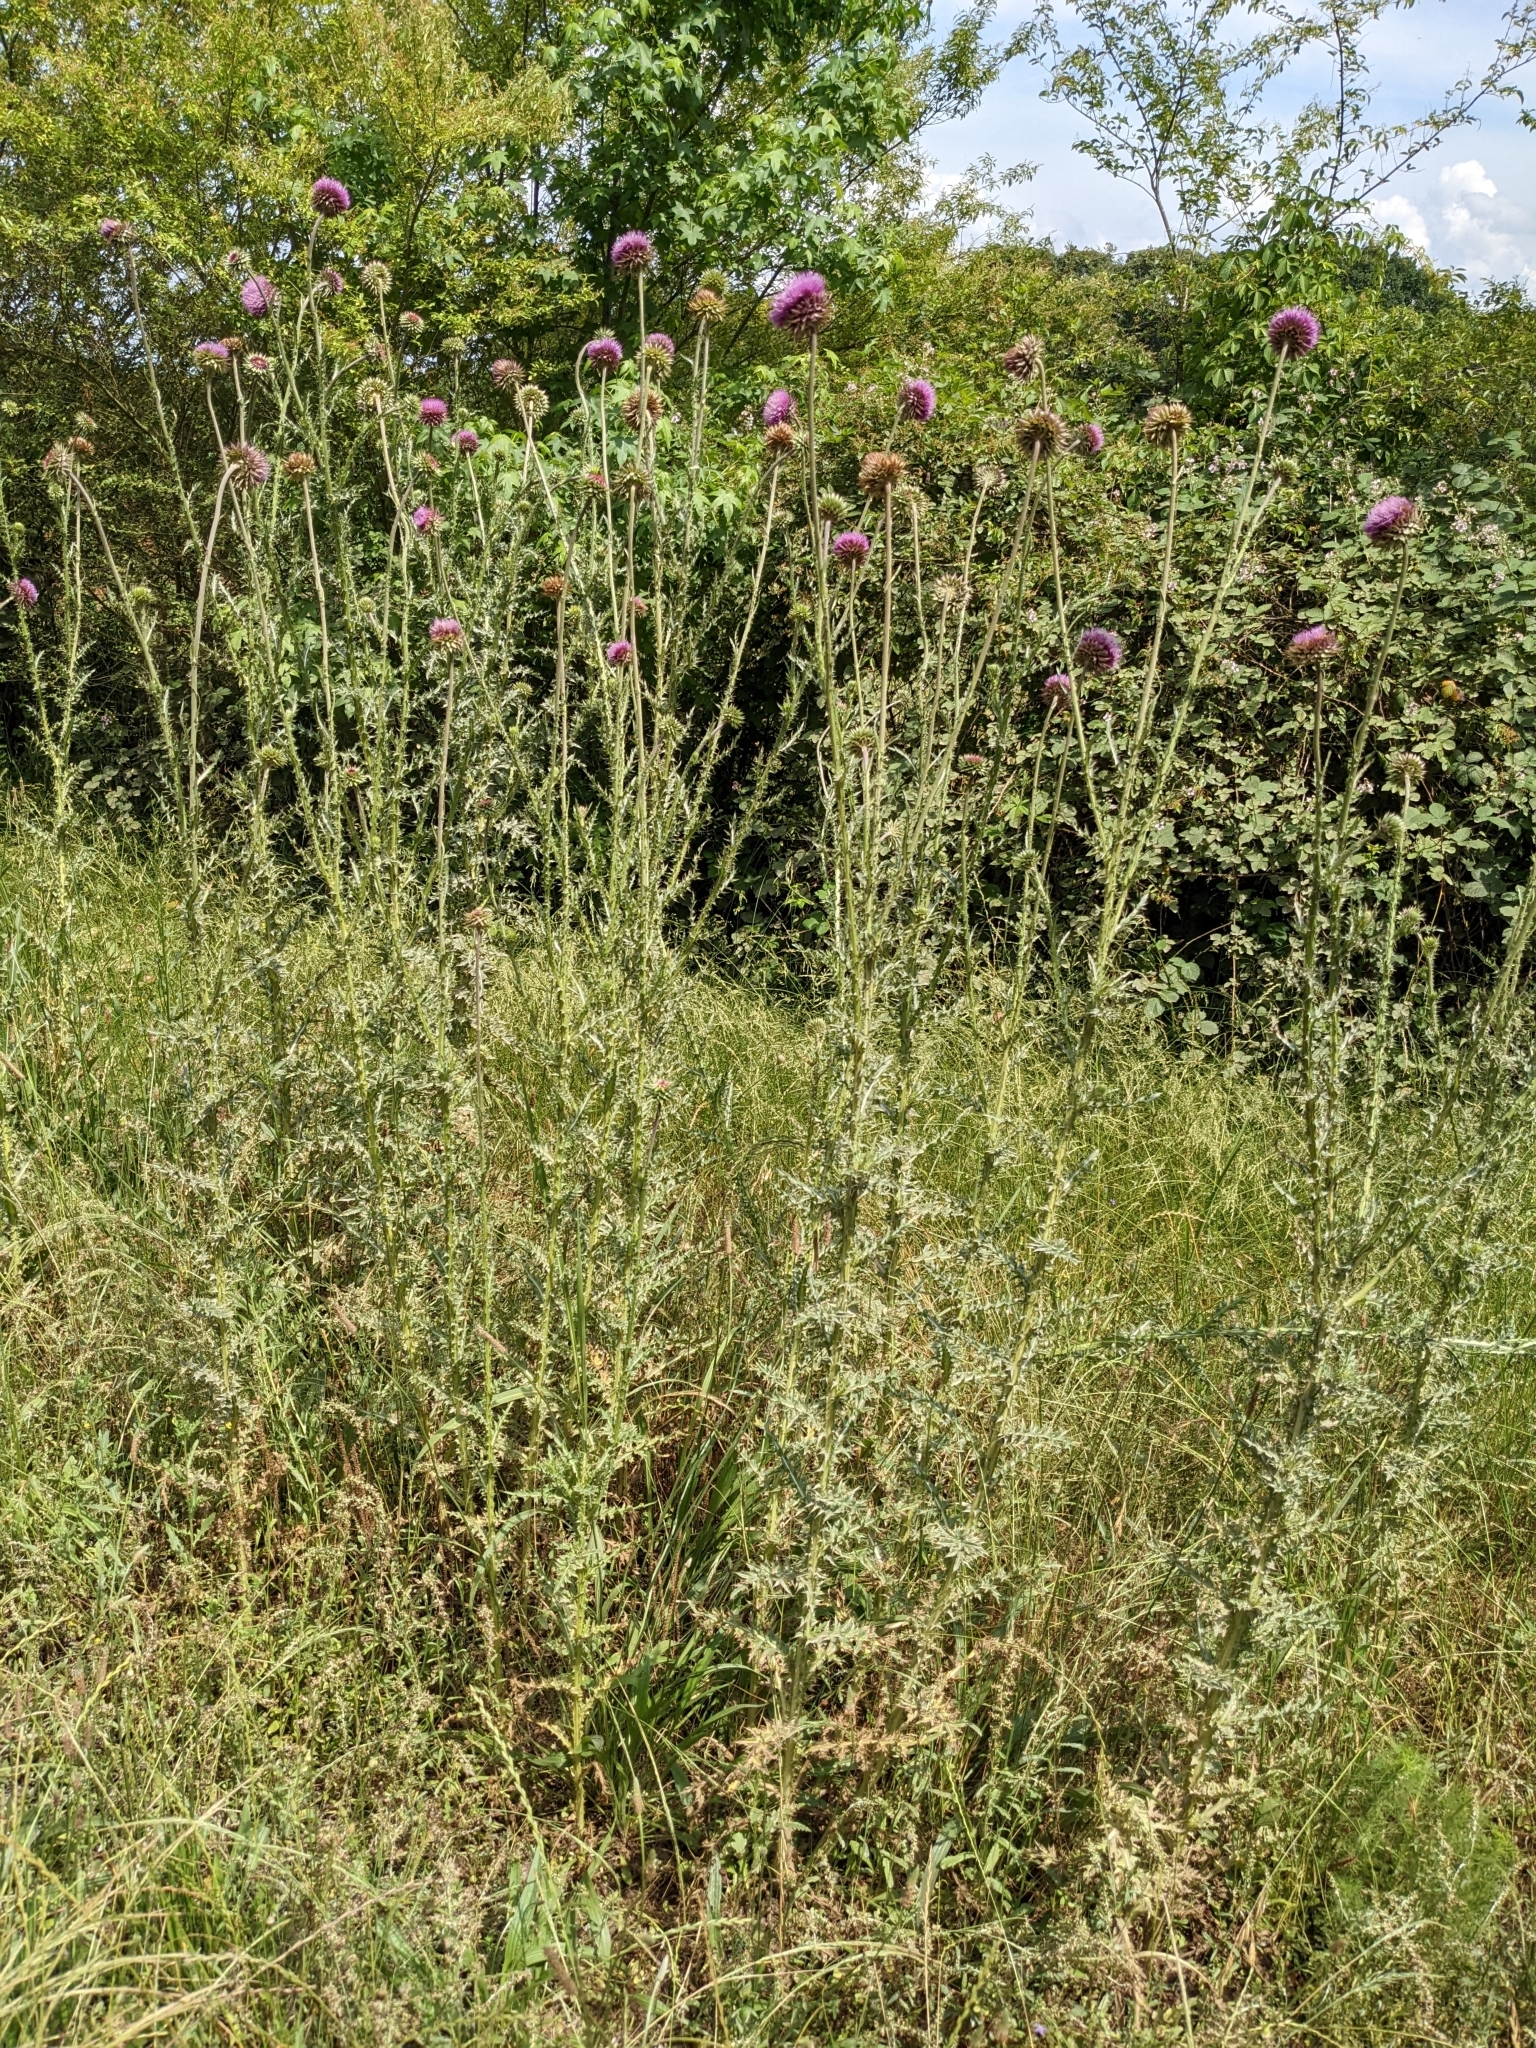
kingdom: Plantae
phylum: Tracheophyta
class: Magnoliopsida
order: Asterales
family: Asteraceae
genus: Carduus
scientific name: Carduus nutans
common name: Musk thistle
